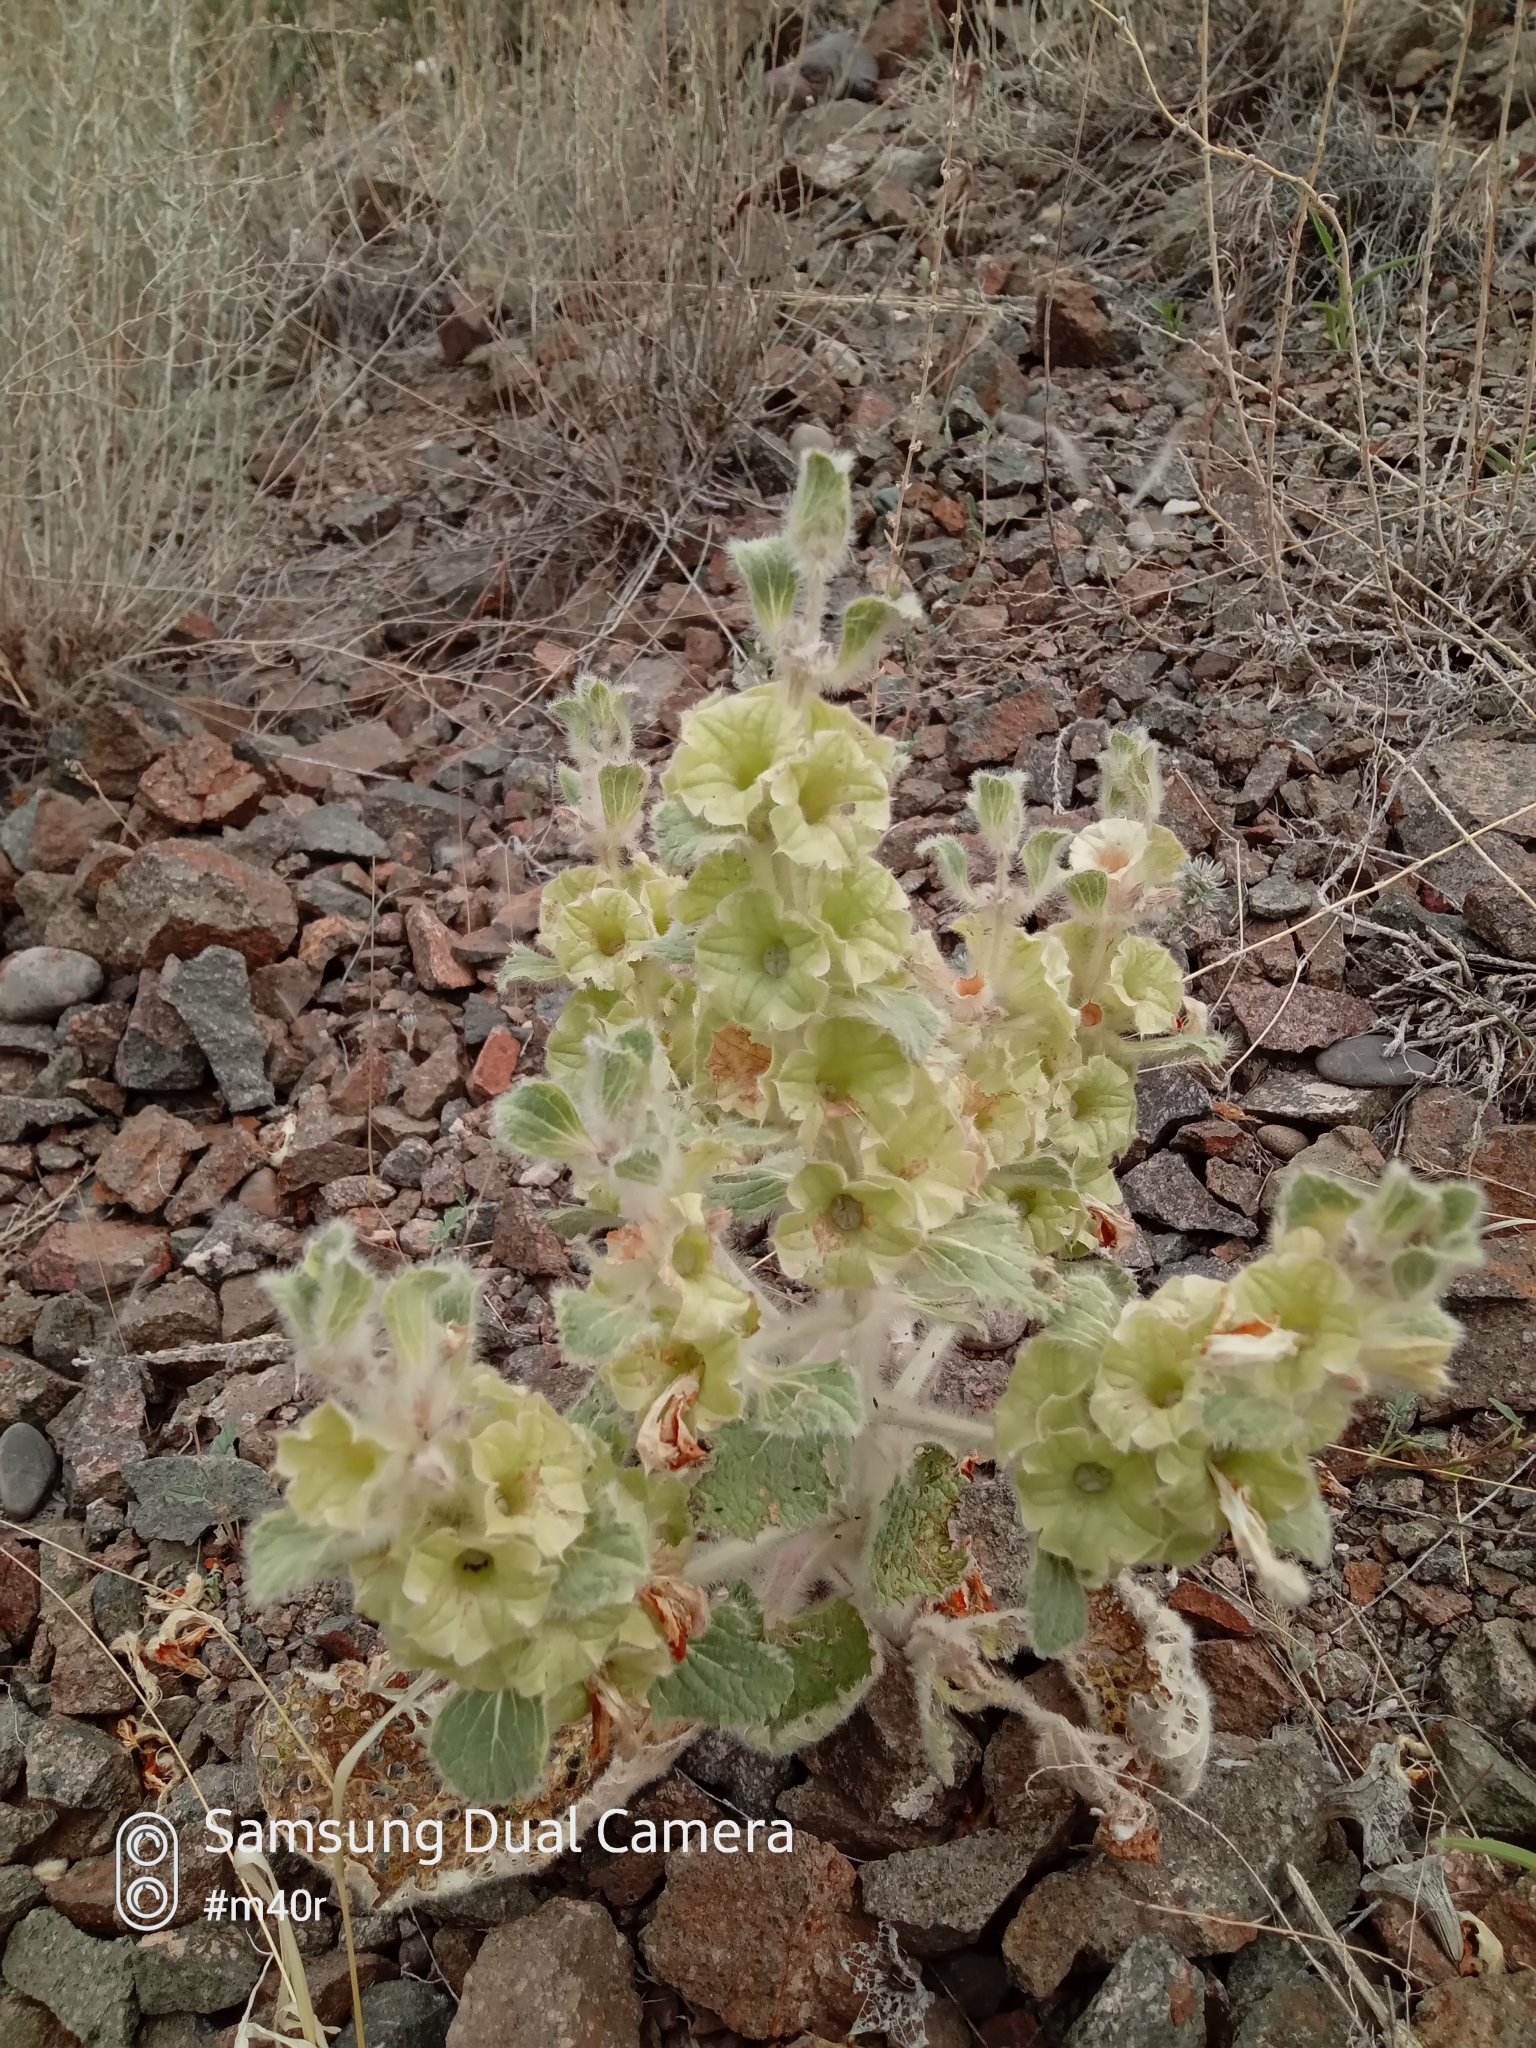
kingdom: Plantae
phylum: Tracheophyta
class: Magnoliopsida
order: Lamiales
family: Lamiaceae
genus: Phlomoides
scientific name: Phlomoides isochila
